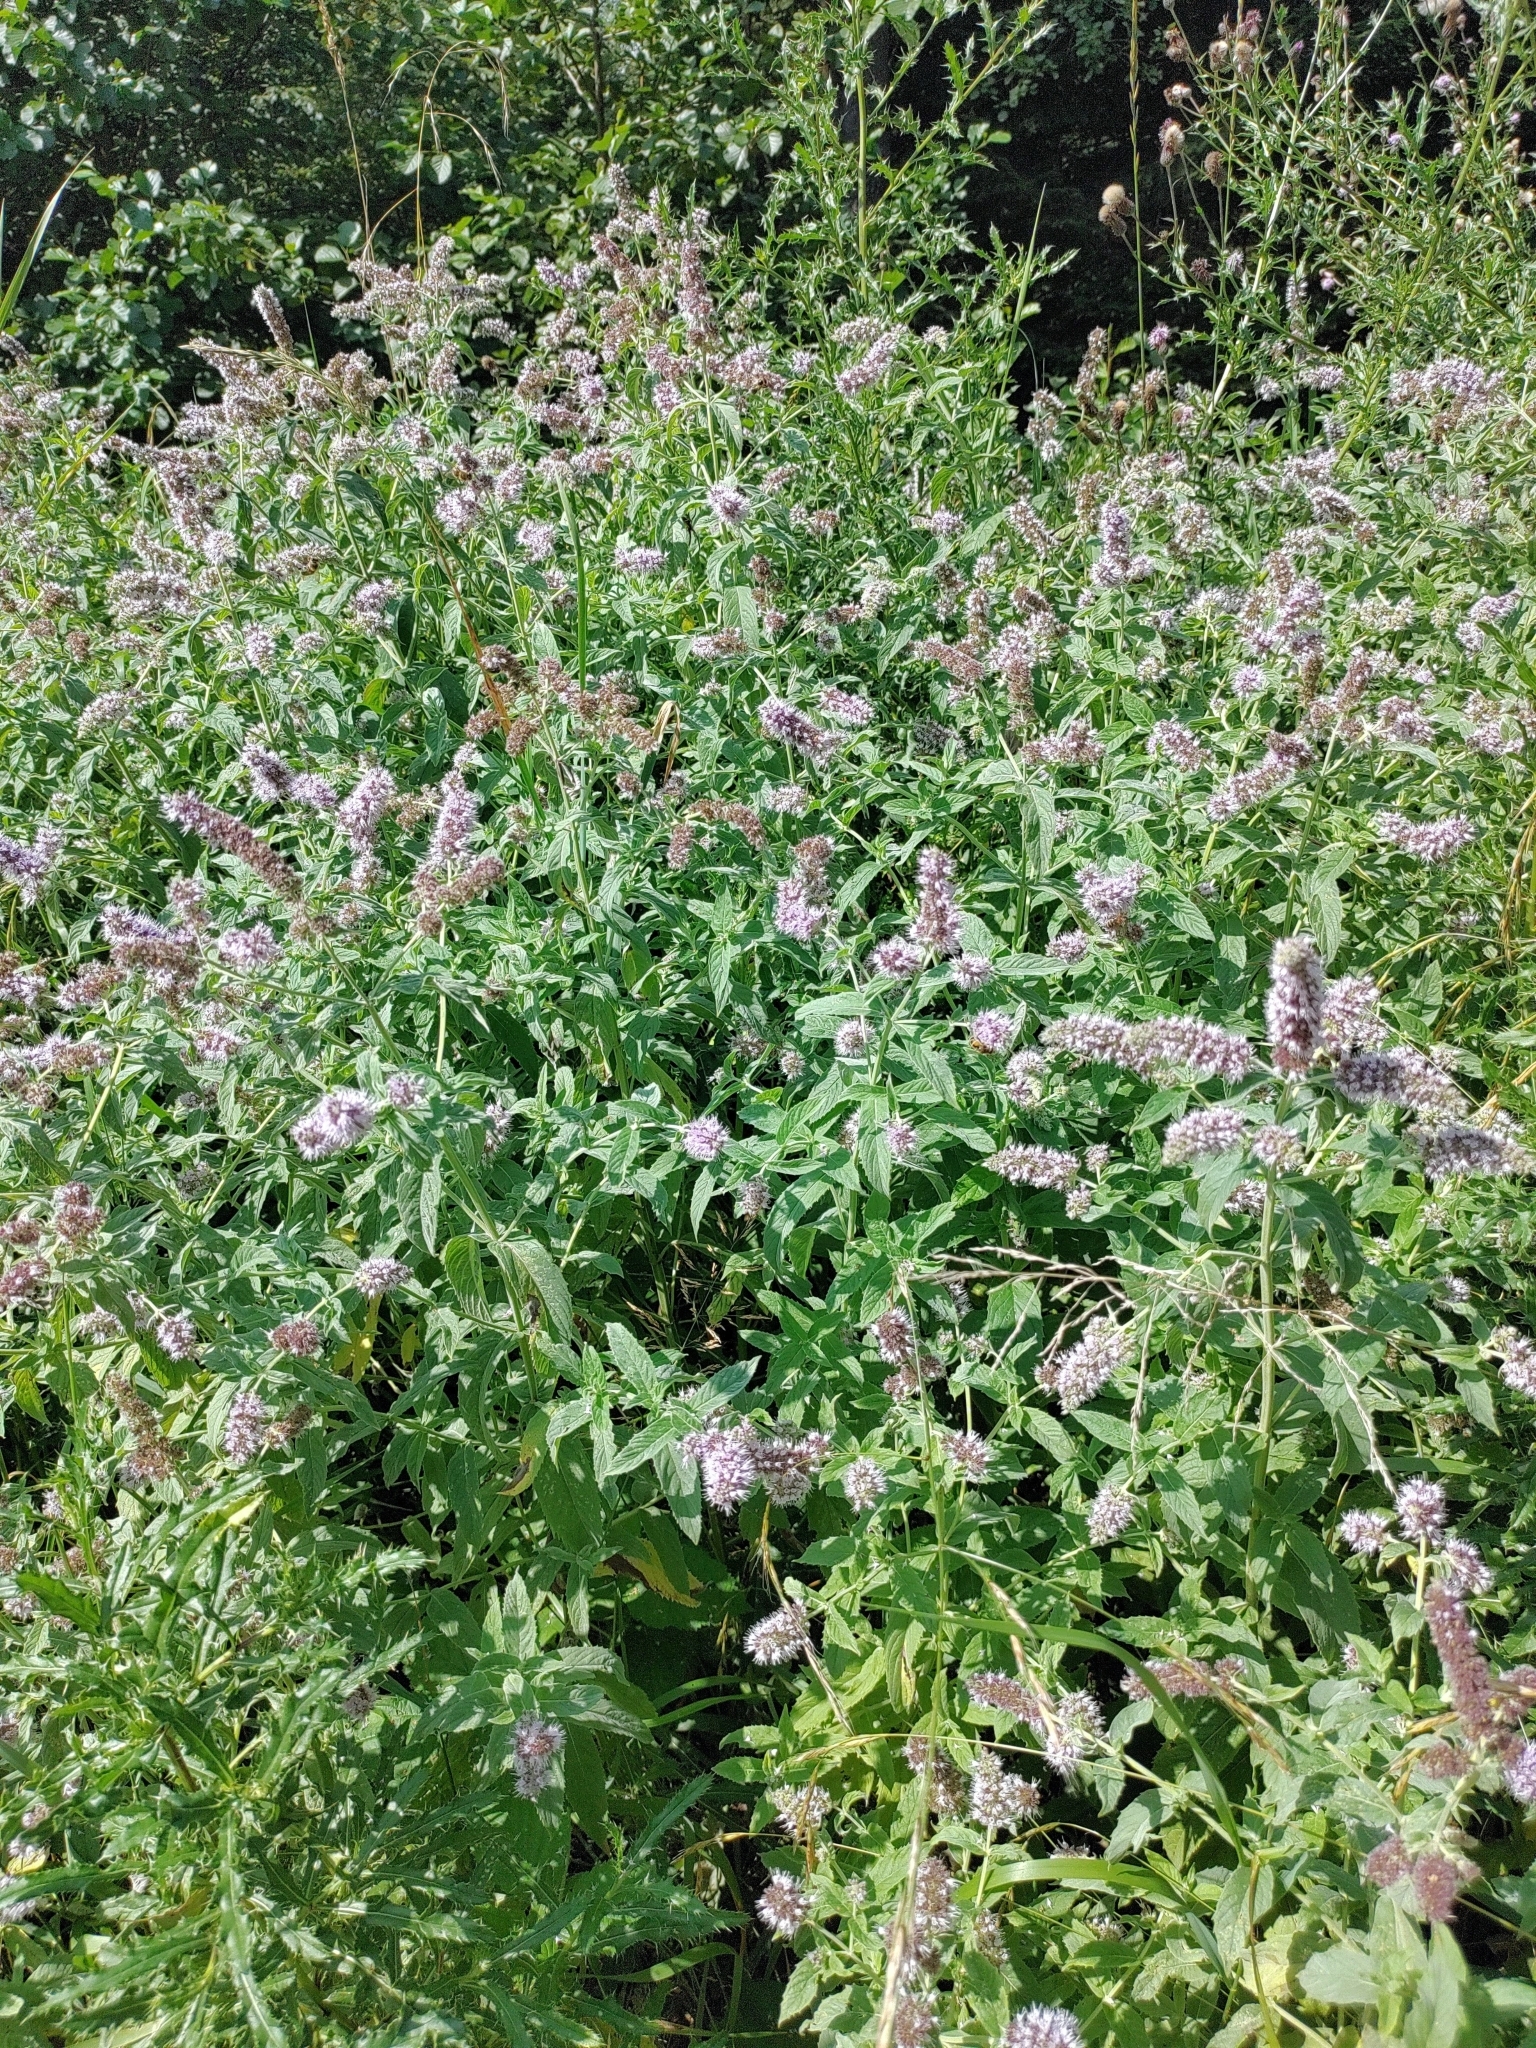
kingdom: Plantae
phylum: Tracheophyta
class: Magnoliopsida
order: Lamiales
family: Lamiaceae
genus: Mentha
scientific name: Mentha longifolia
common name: Horse mint
